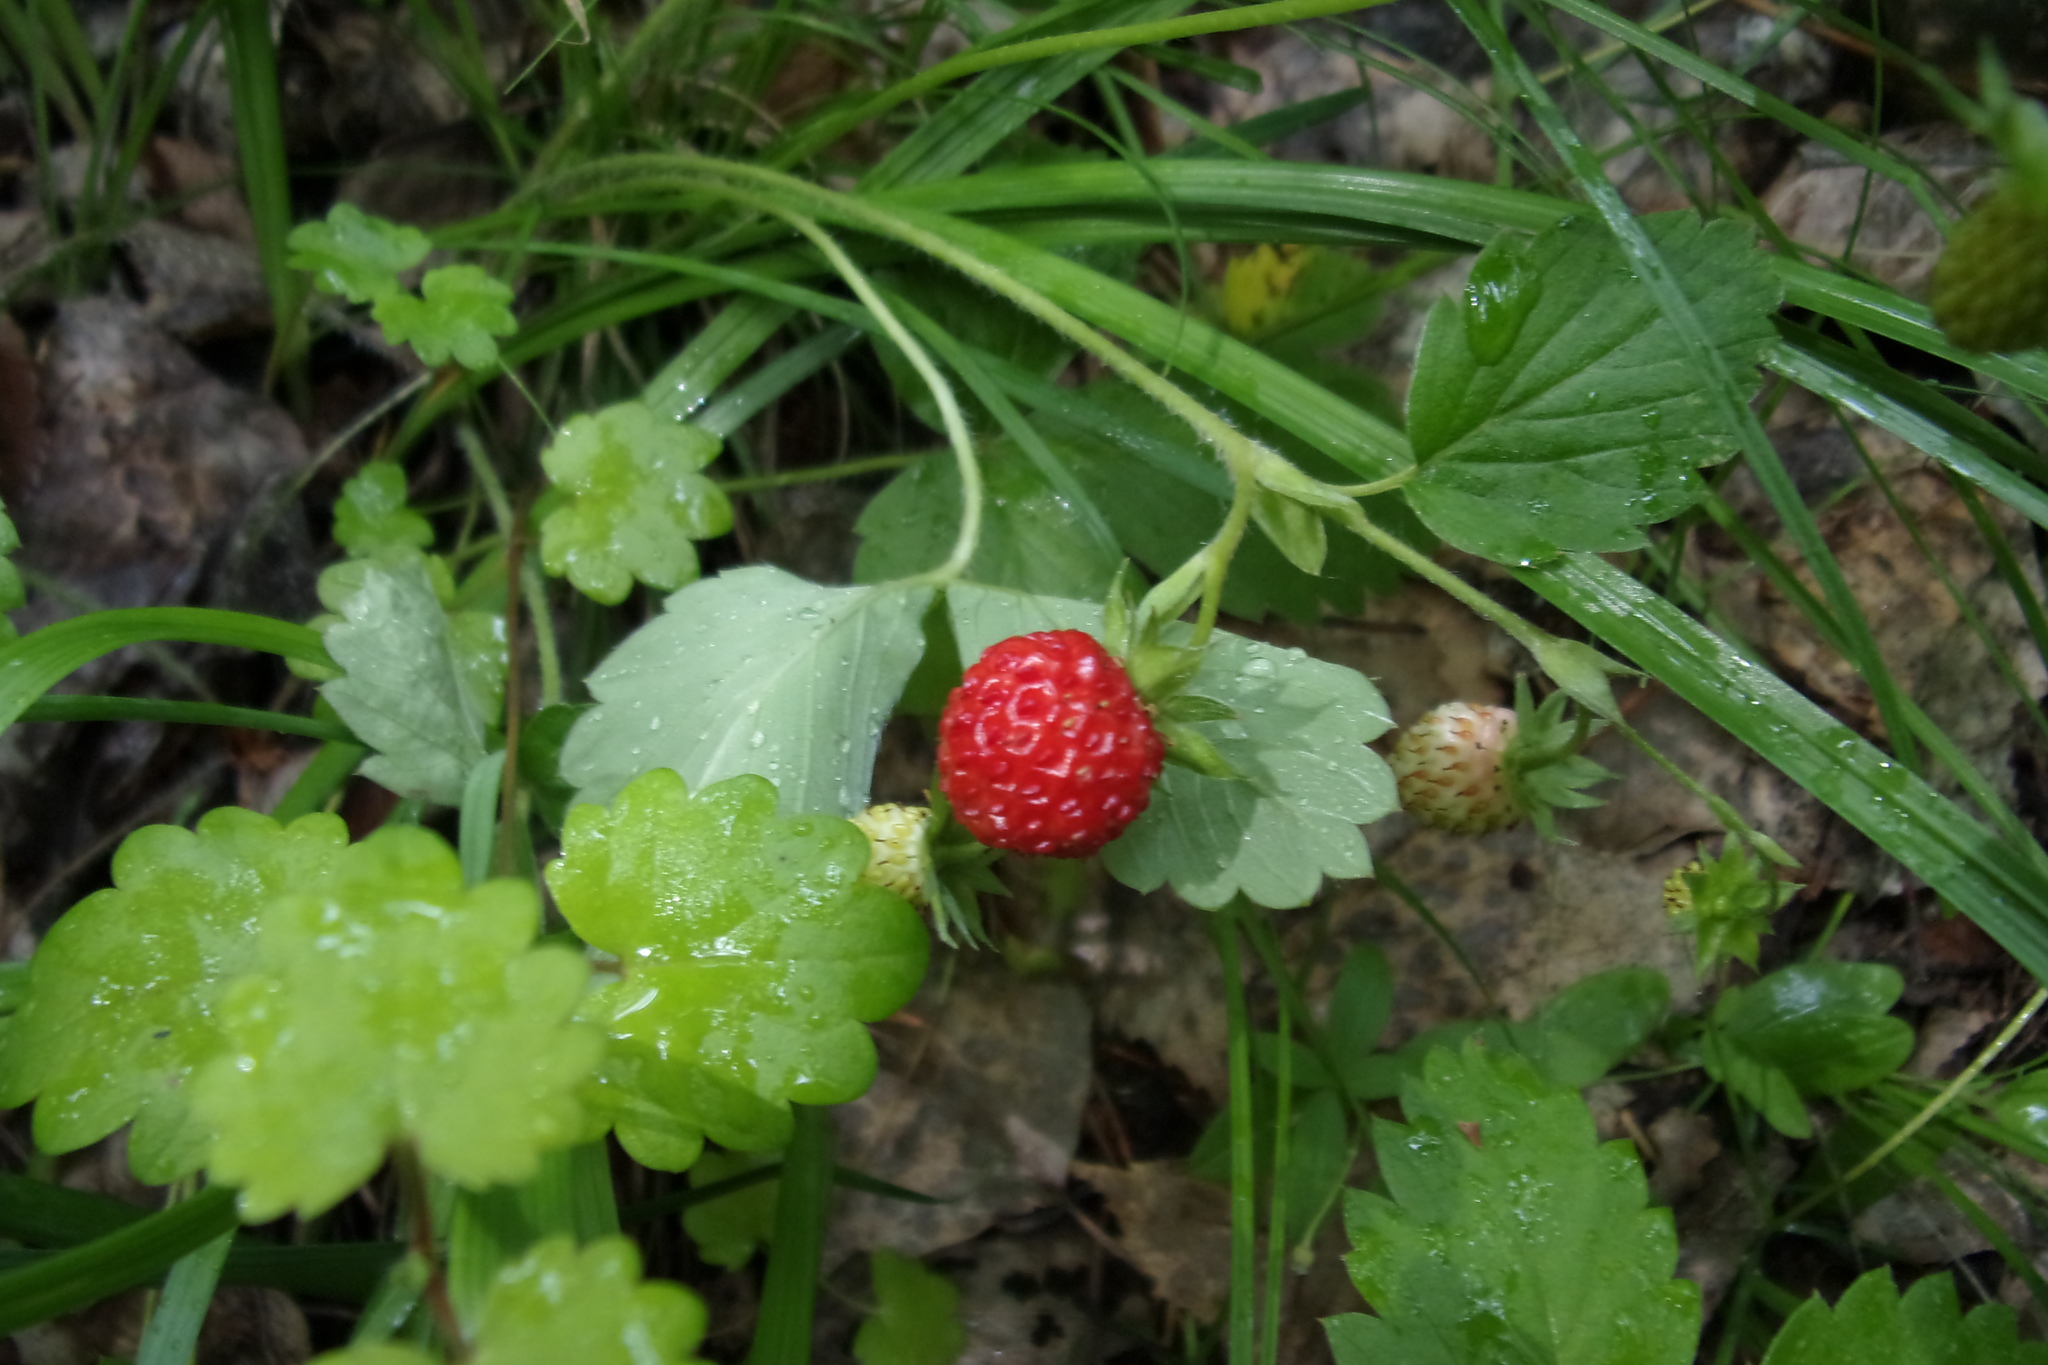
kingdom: Plantae
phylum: Tracheophyta
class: Magnoliopsida
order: Rosales
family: Rosaceae
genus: Fragaria
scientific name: Fragaria vesca
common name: Wild strawberry
